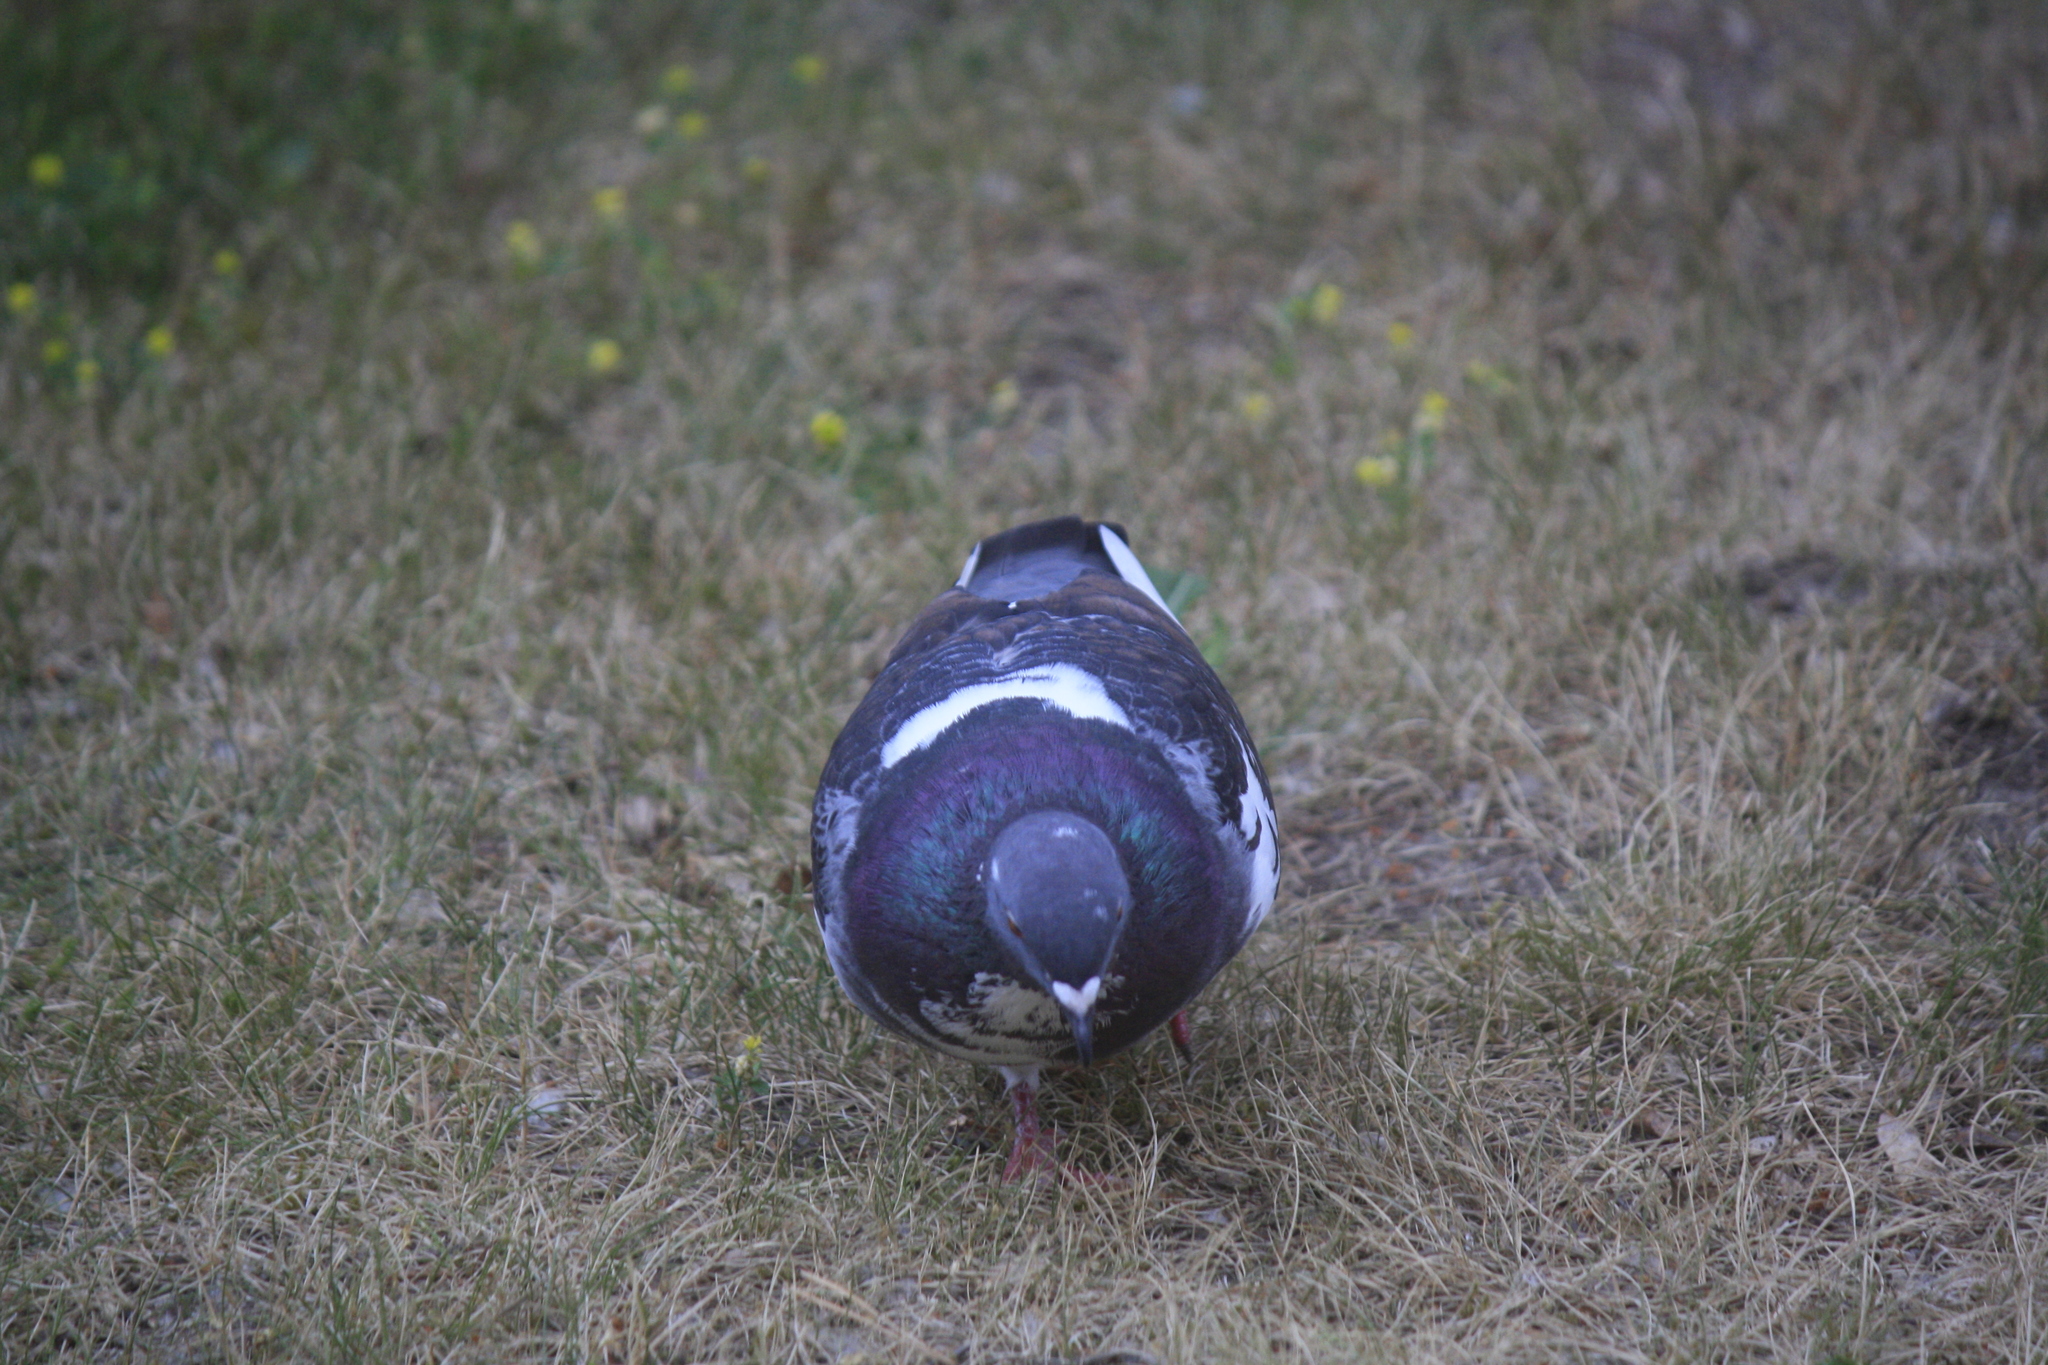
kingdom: Animalia
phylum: Chordata
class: Aves
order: Columbiformes
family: Columbidae
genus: Columba
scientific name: Columba livia
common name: Rock pigeon
